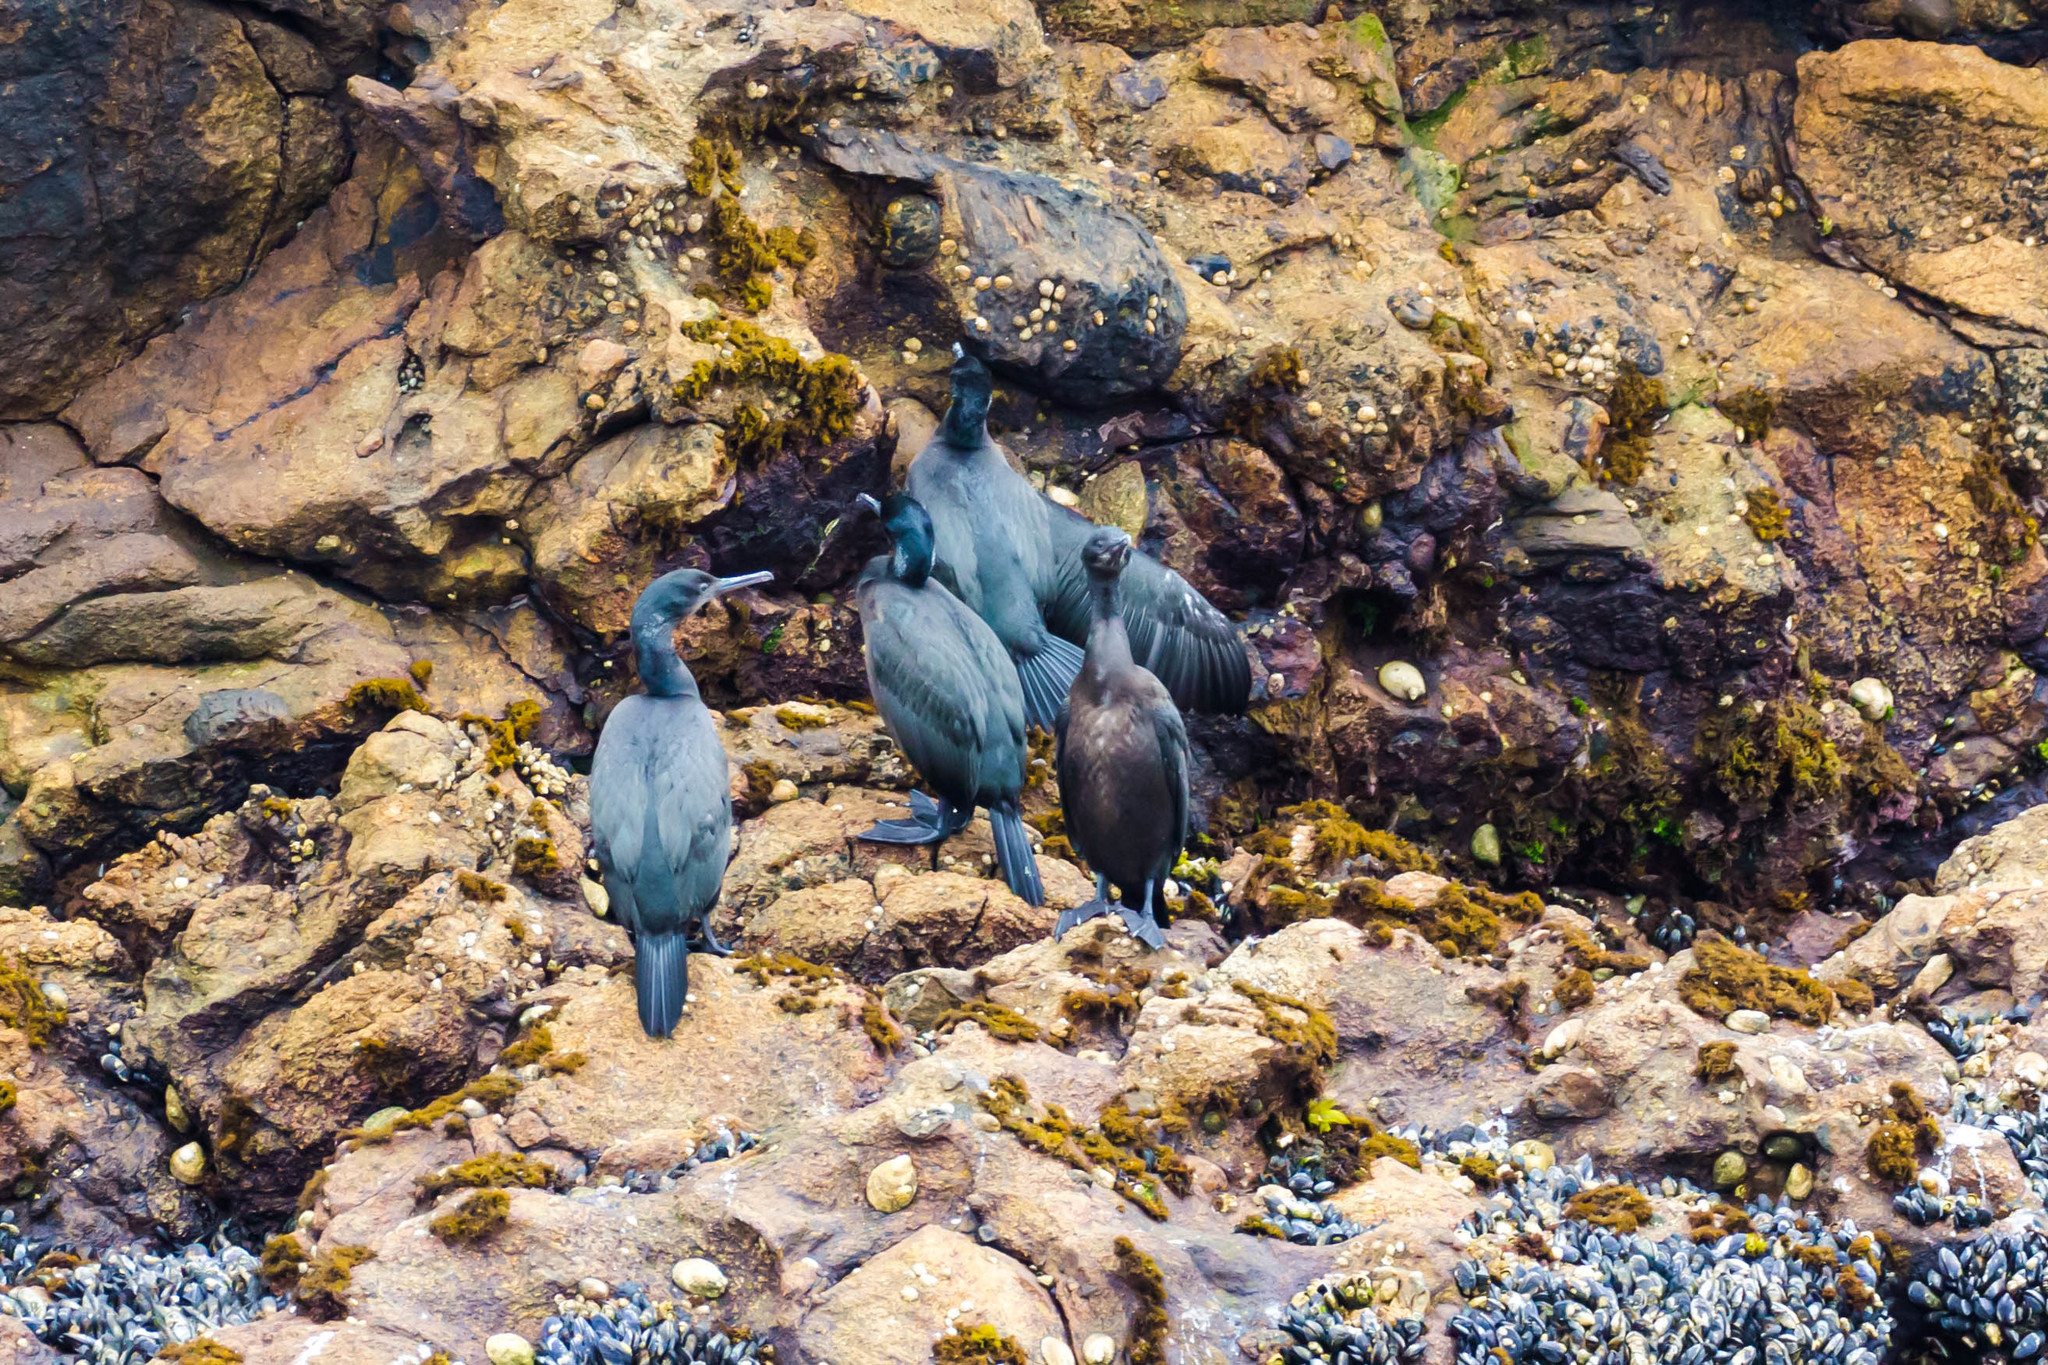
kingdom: Animalia
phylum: Chordata
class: Aves
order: Suliformes
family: Phalacrocoracidae
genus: Urile
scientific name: Urile penicillatus
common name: Brandt's cormorant
